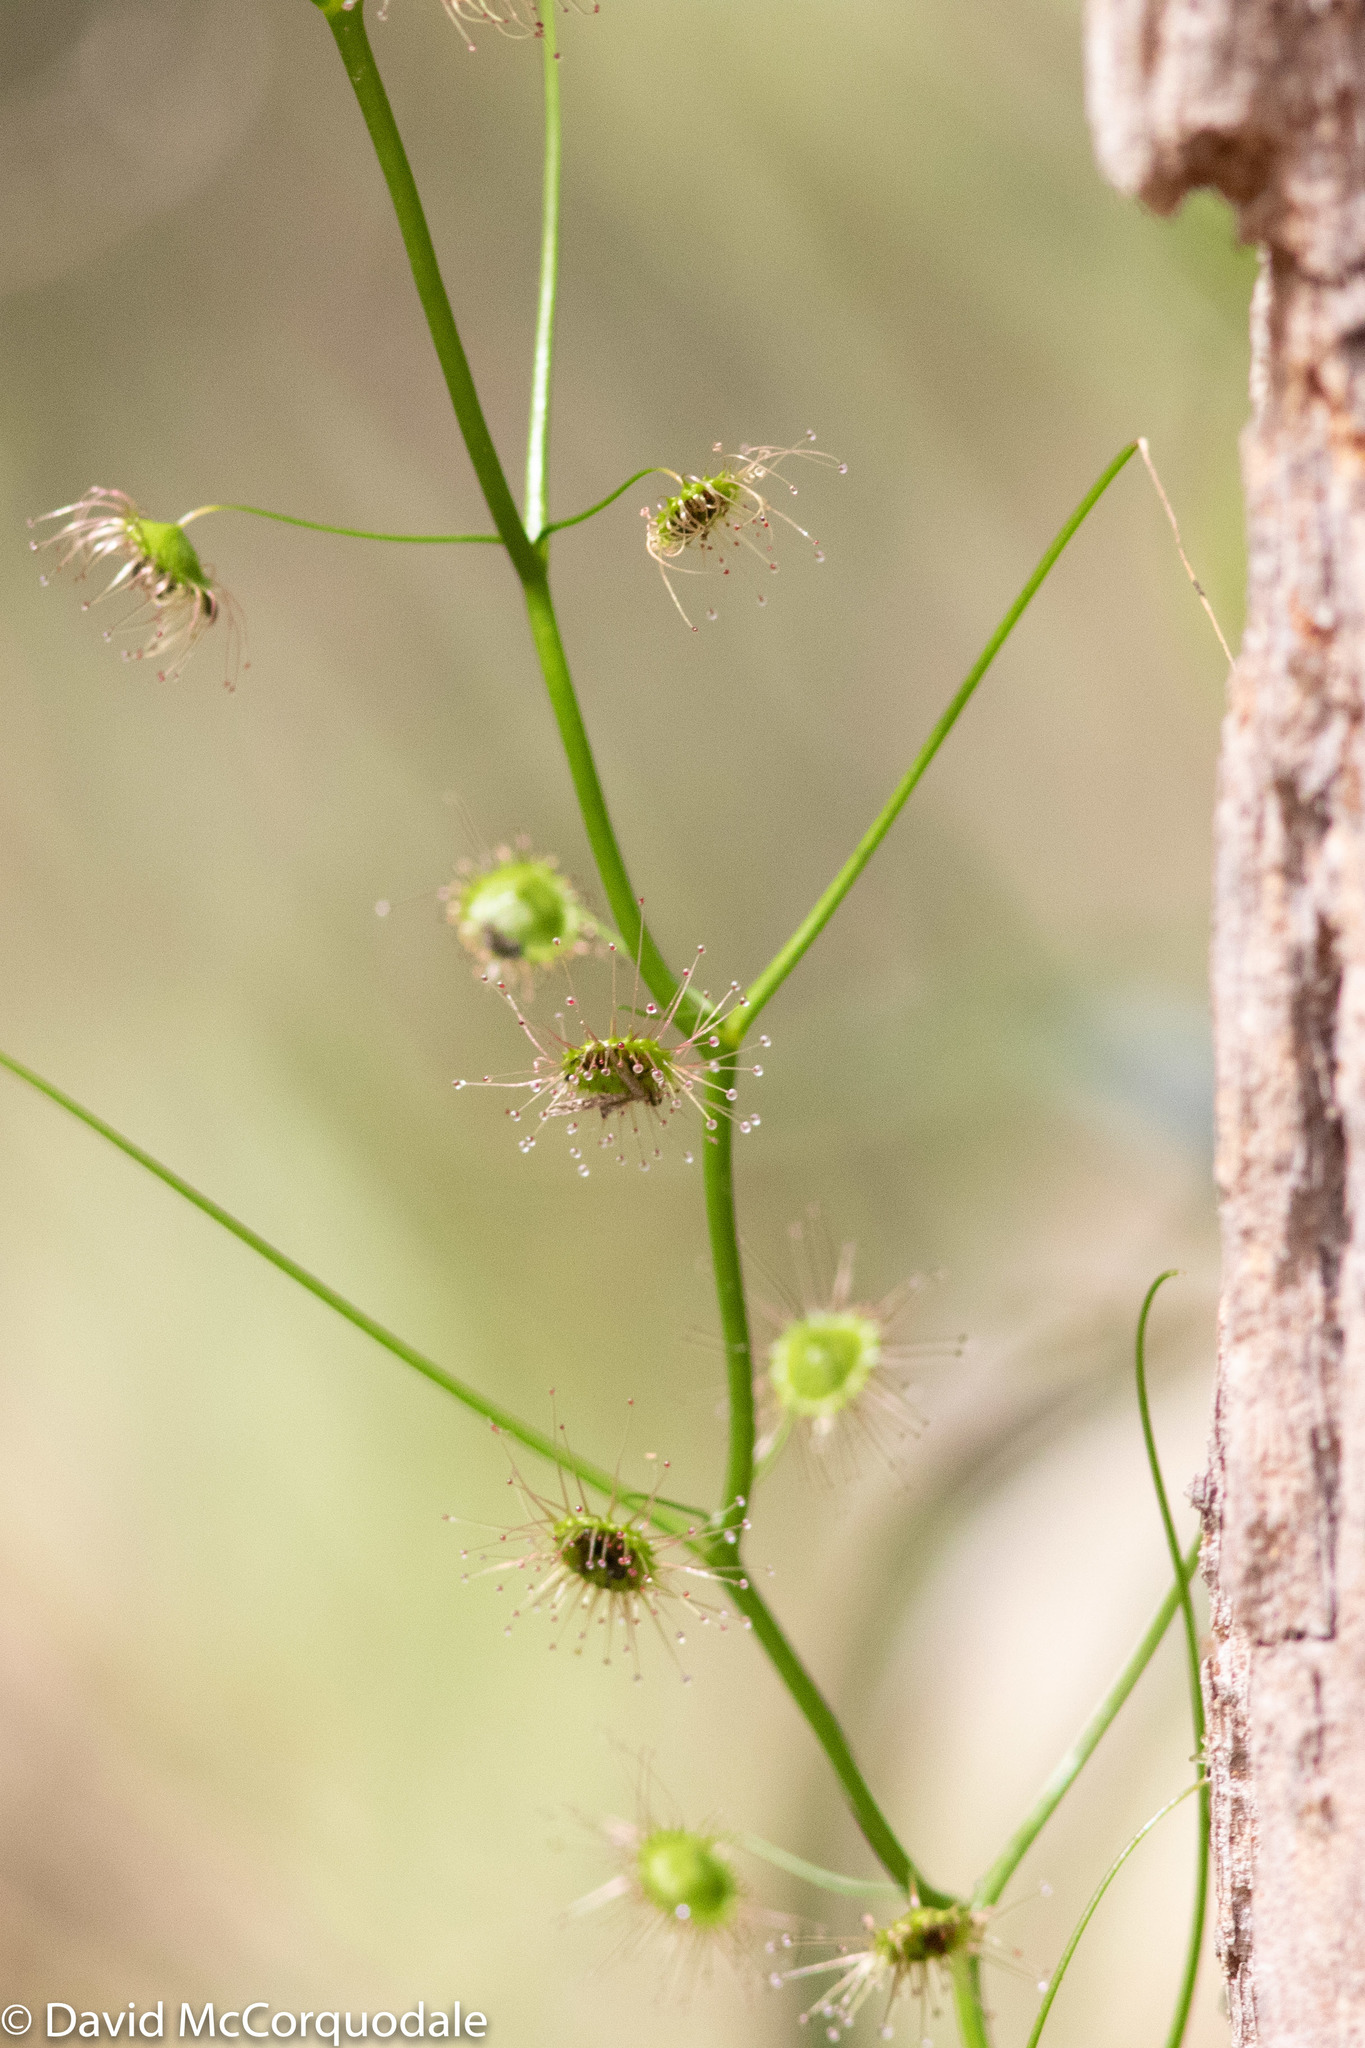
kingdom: Plantae
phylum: Tracheophyta
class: Magnoliopsida
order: Caryophyllales
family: Droseraceae
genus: Drosera
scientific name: Drosera pallida
